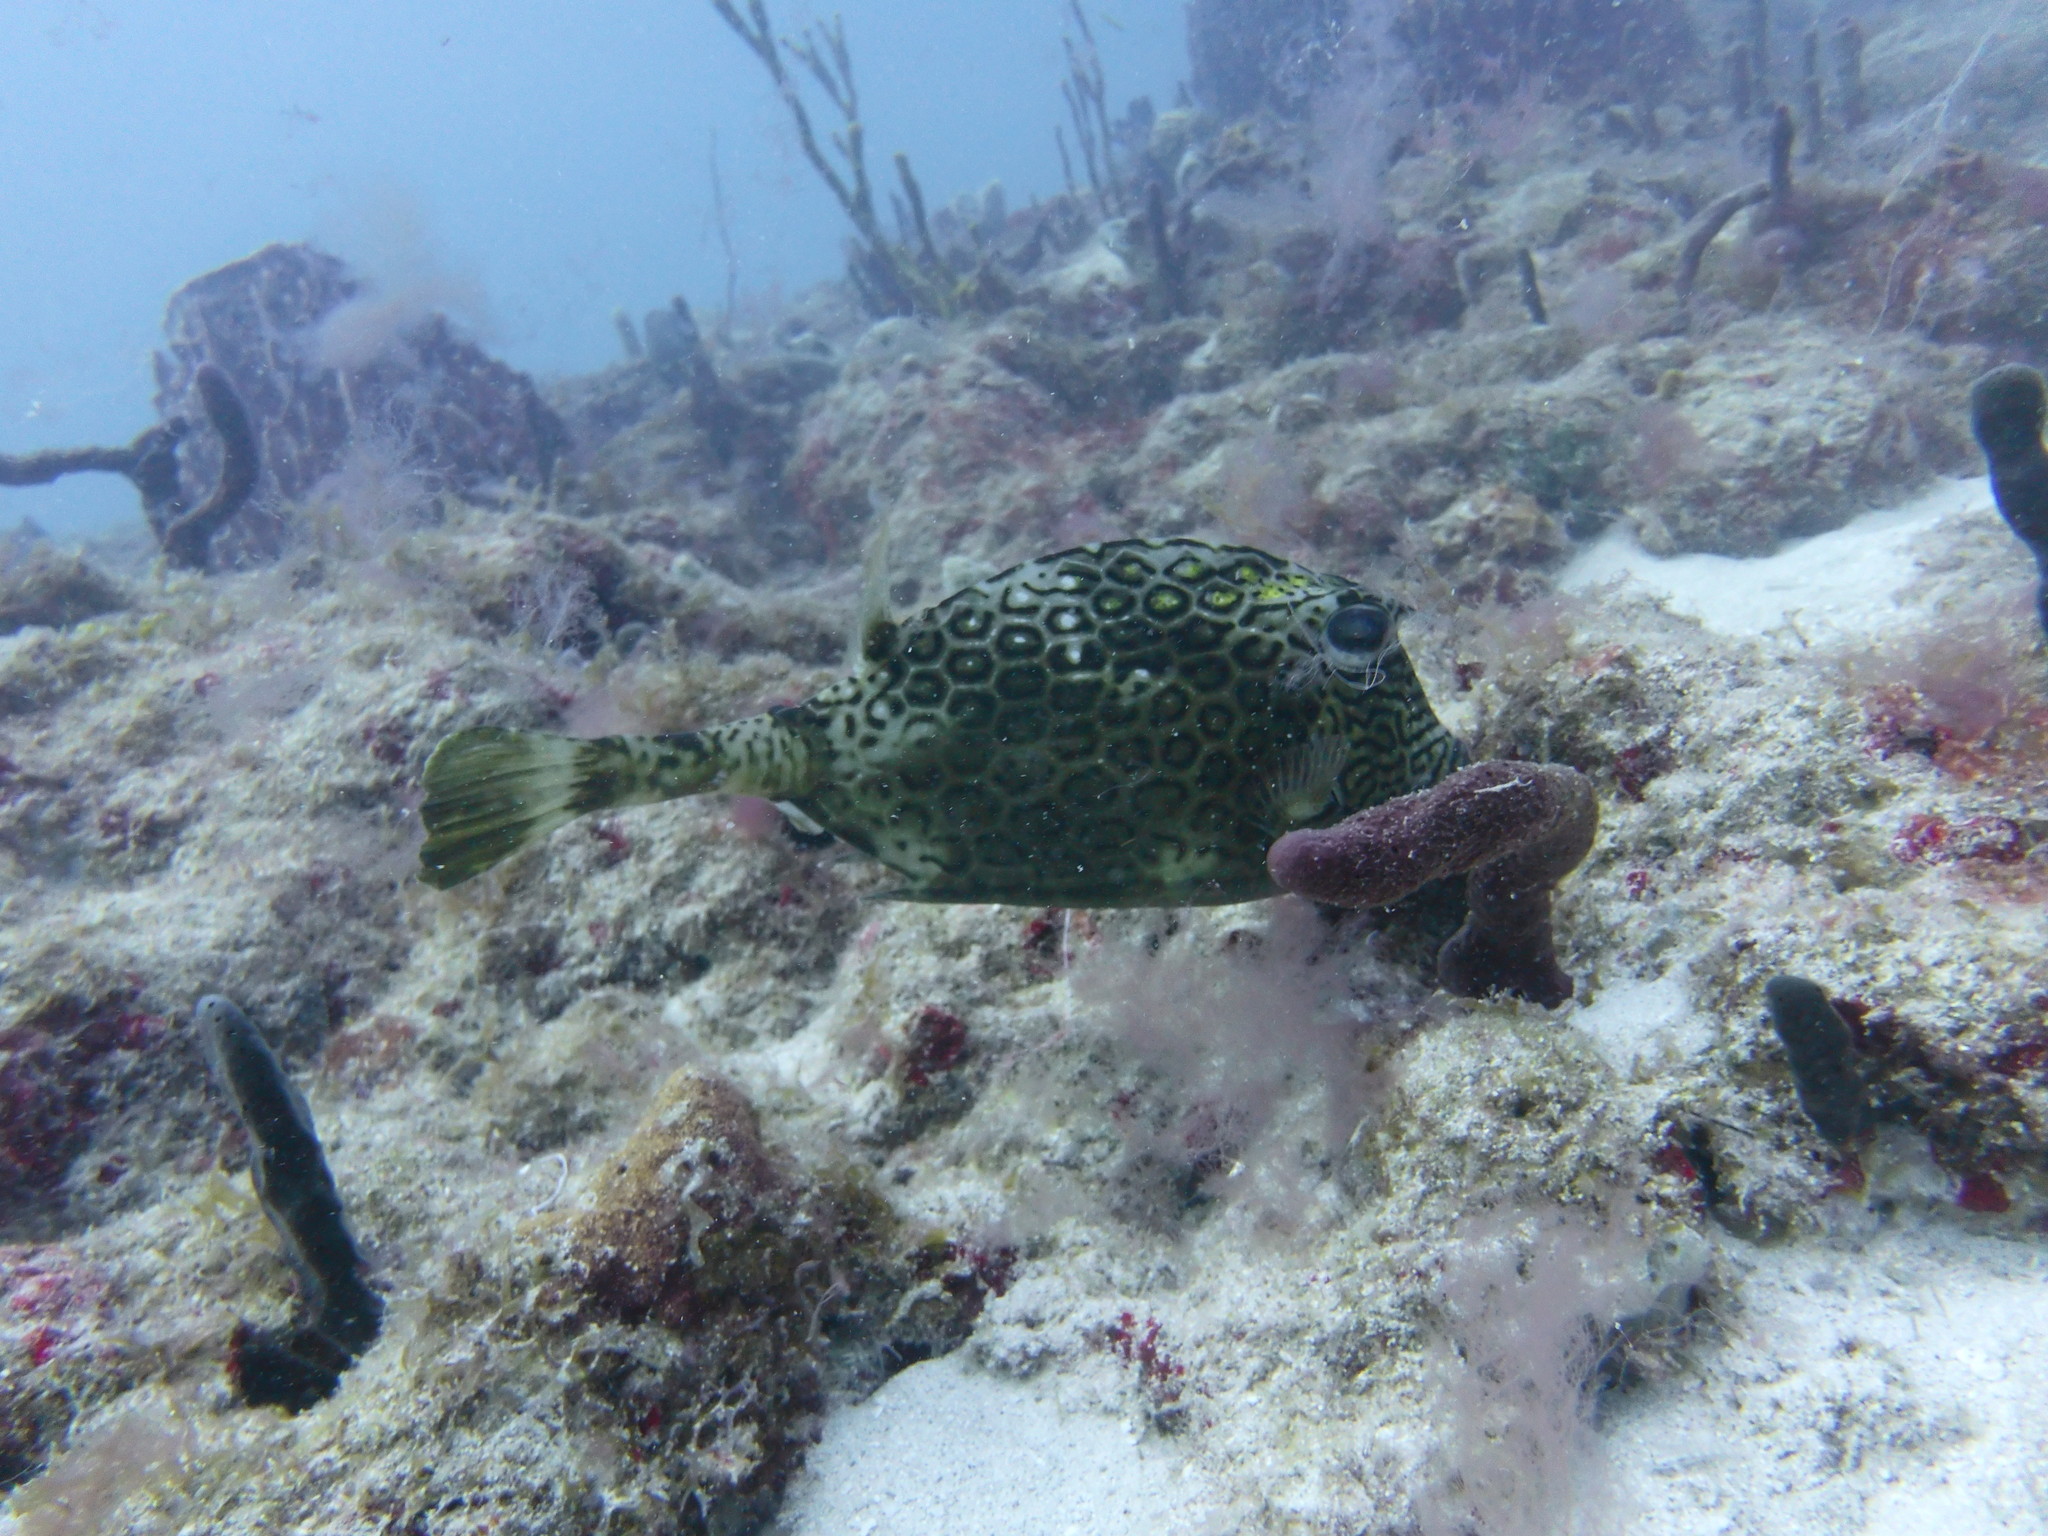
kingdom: Animalia
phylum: Chordata
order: Tetraodontiformes
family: Ostraciidae
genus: Acanthostracion
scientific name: Acanthostracion polygonius
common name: Honeycomb cowfish
